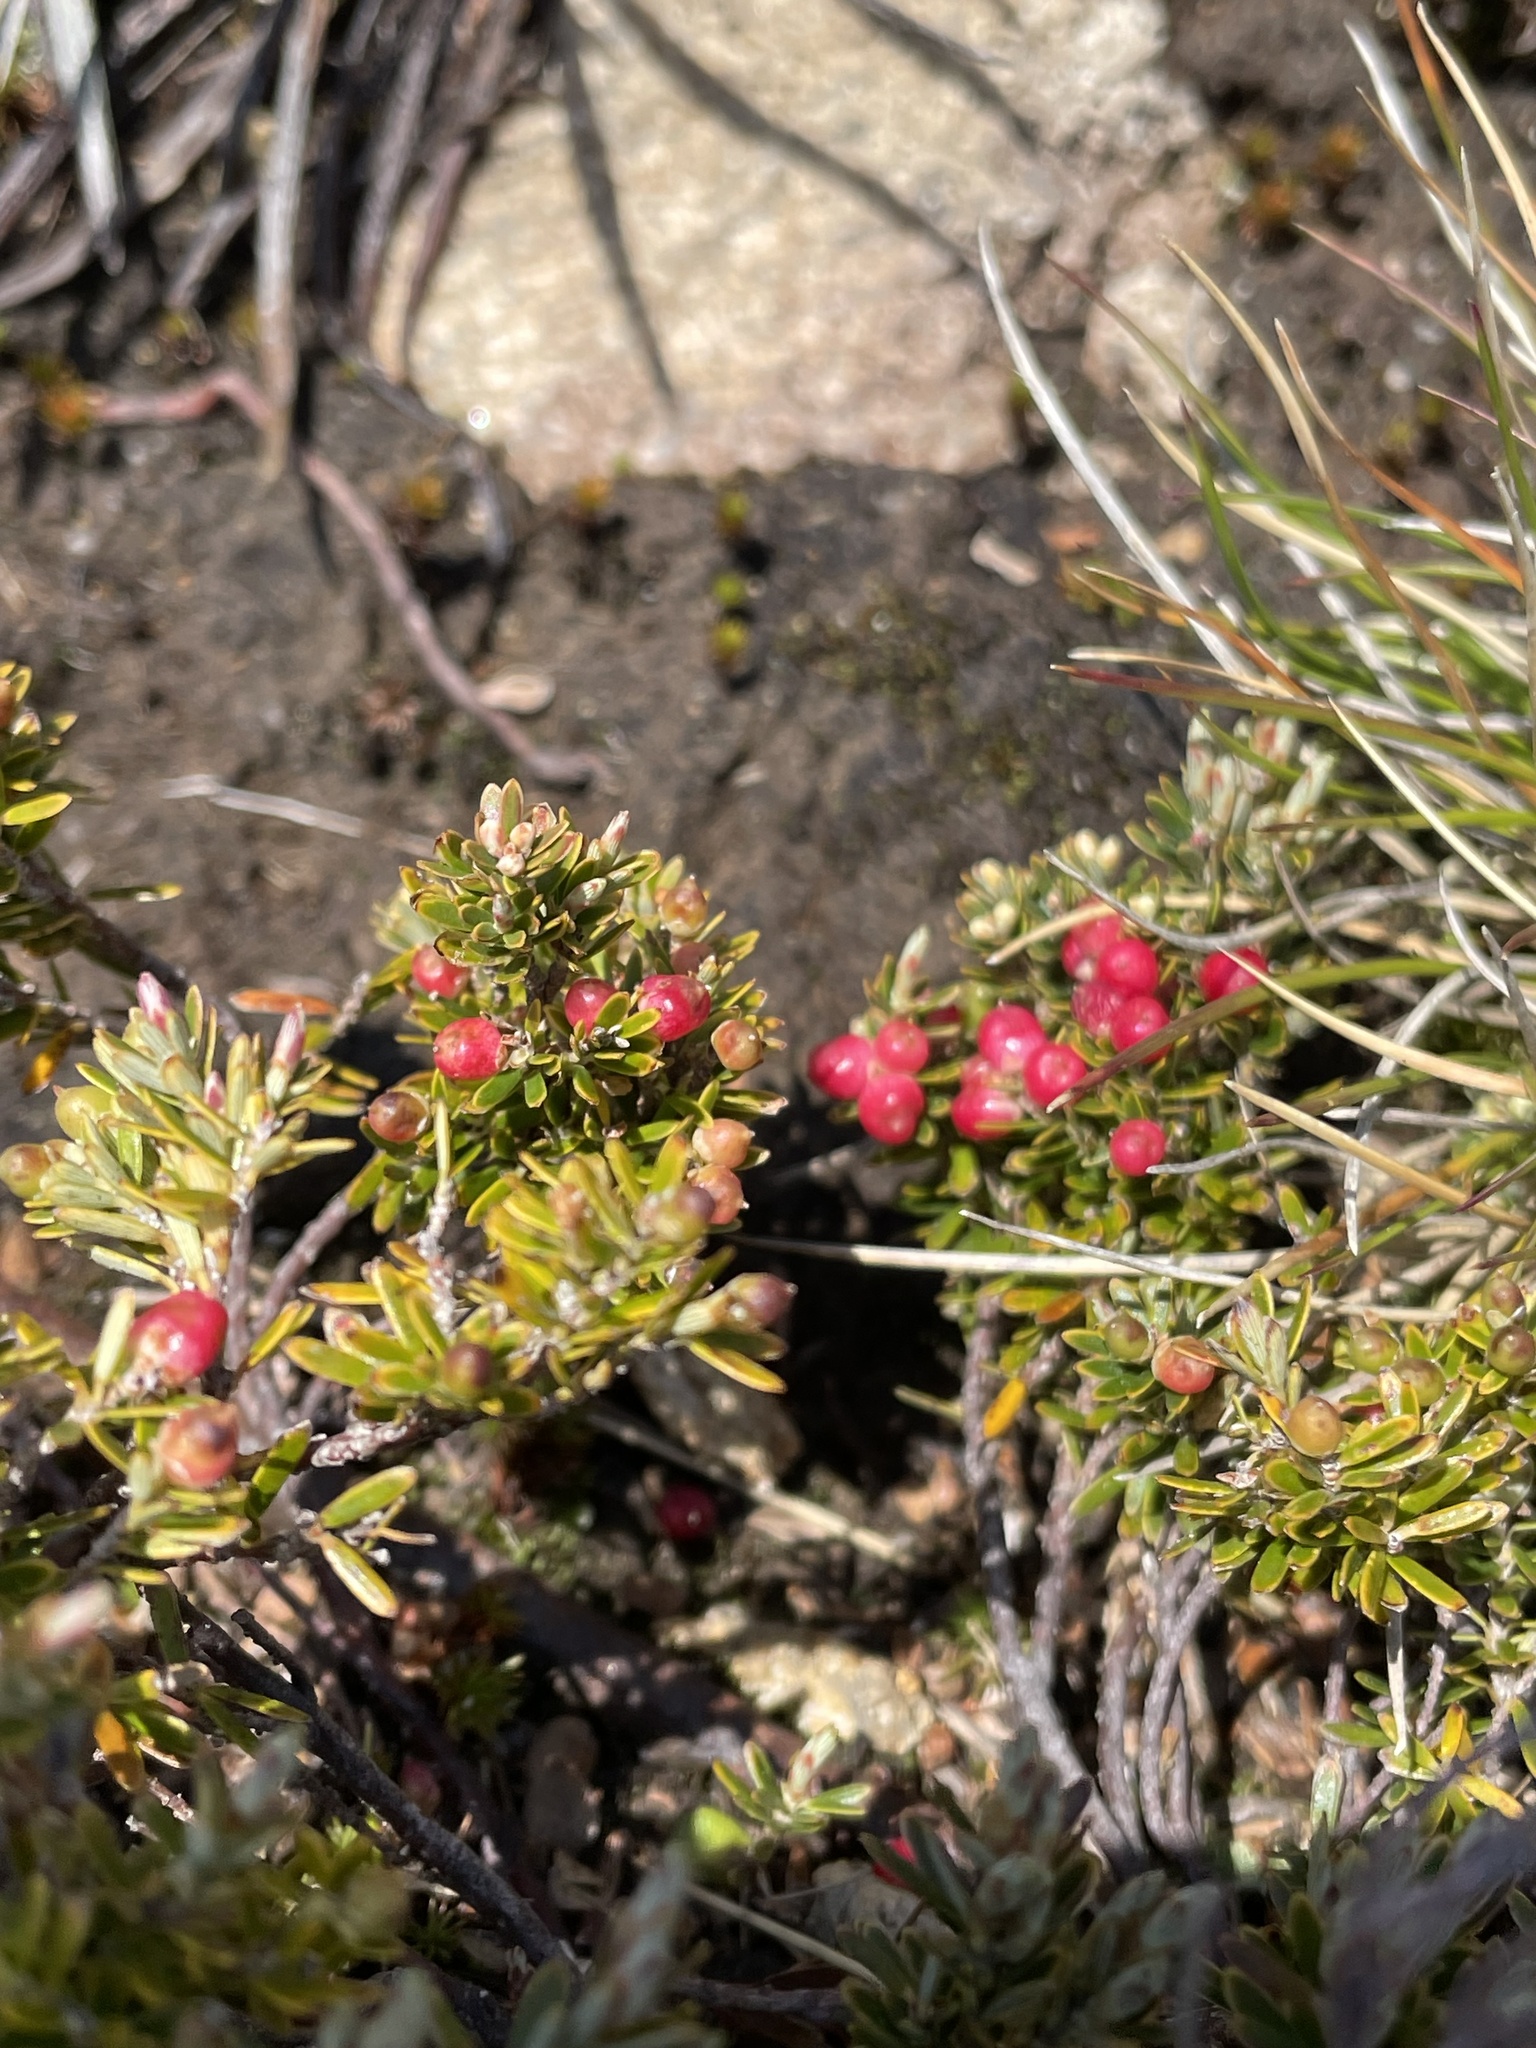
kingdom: Plantae
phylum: Tracheophyta
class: Magnoliopsida
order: Ericales
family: Ericaceae
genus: Acrothamnus
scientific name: Acrothamnus hookeri
